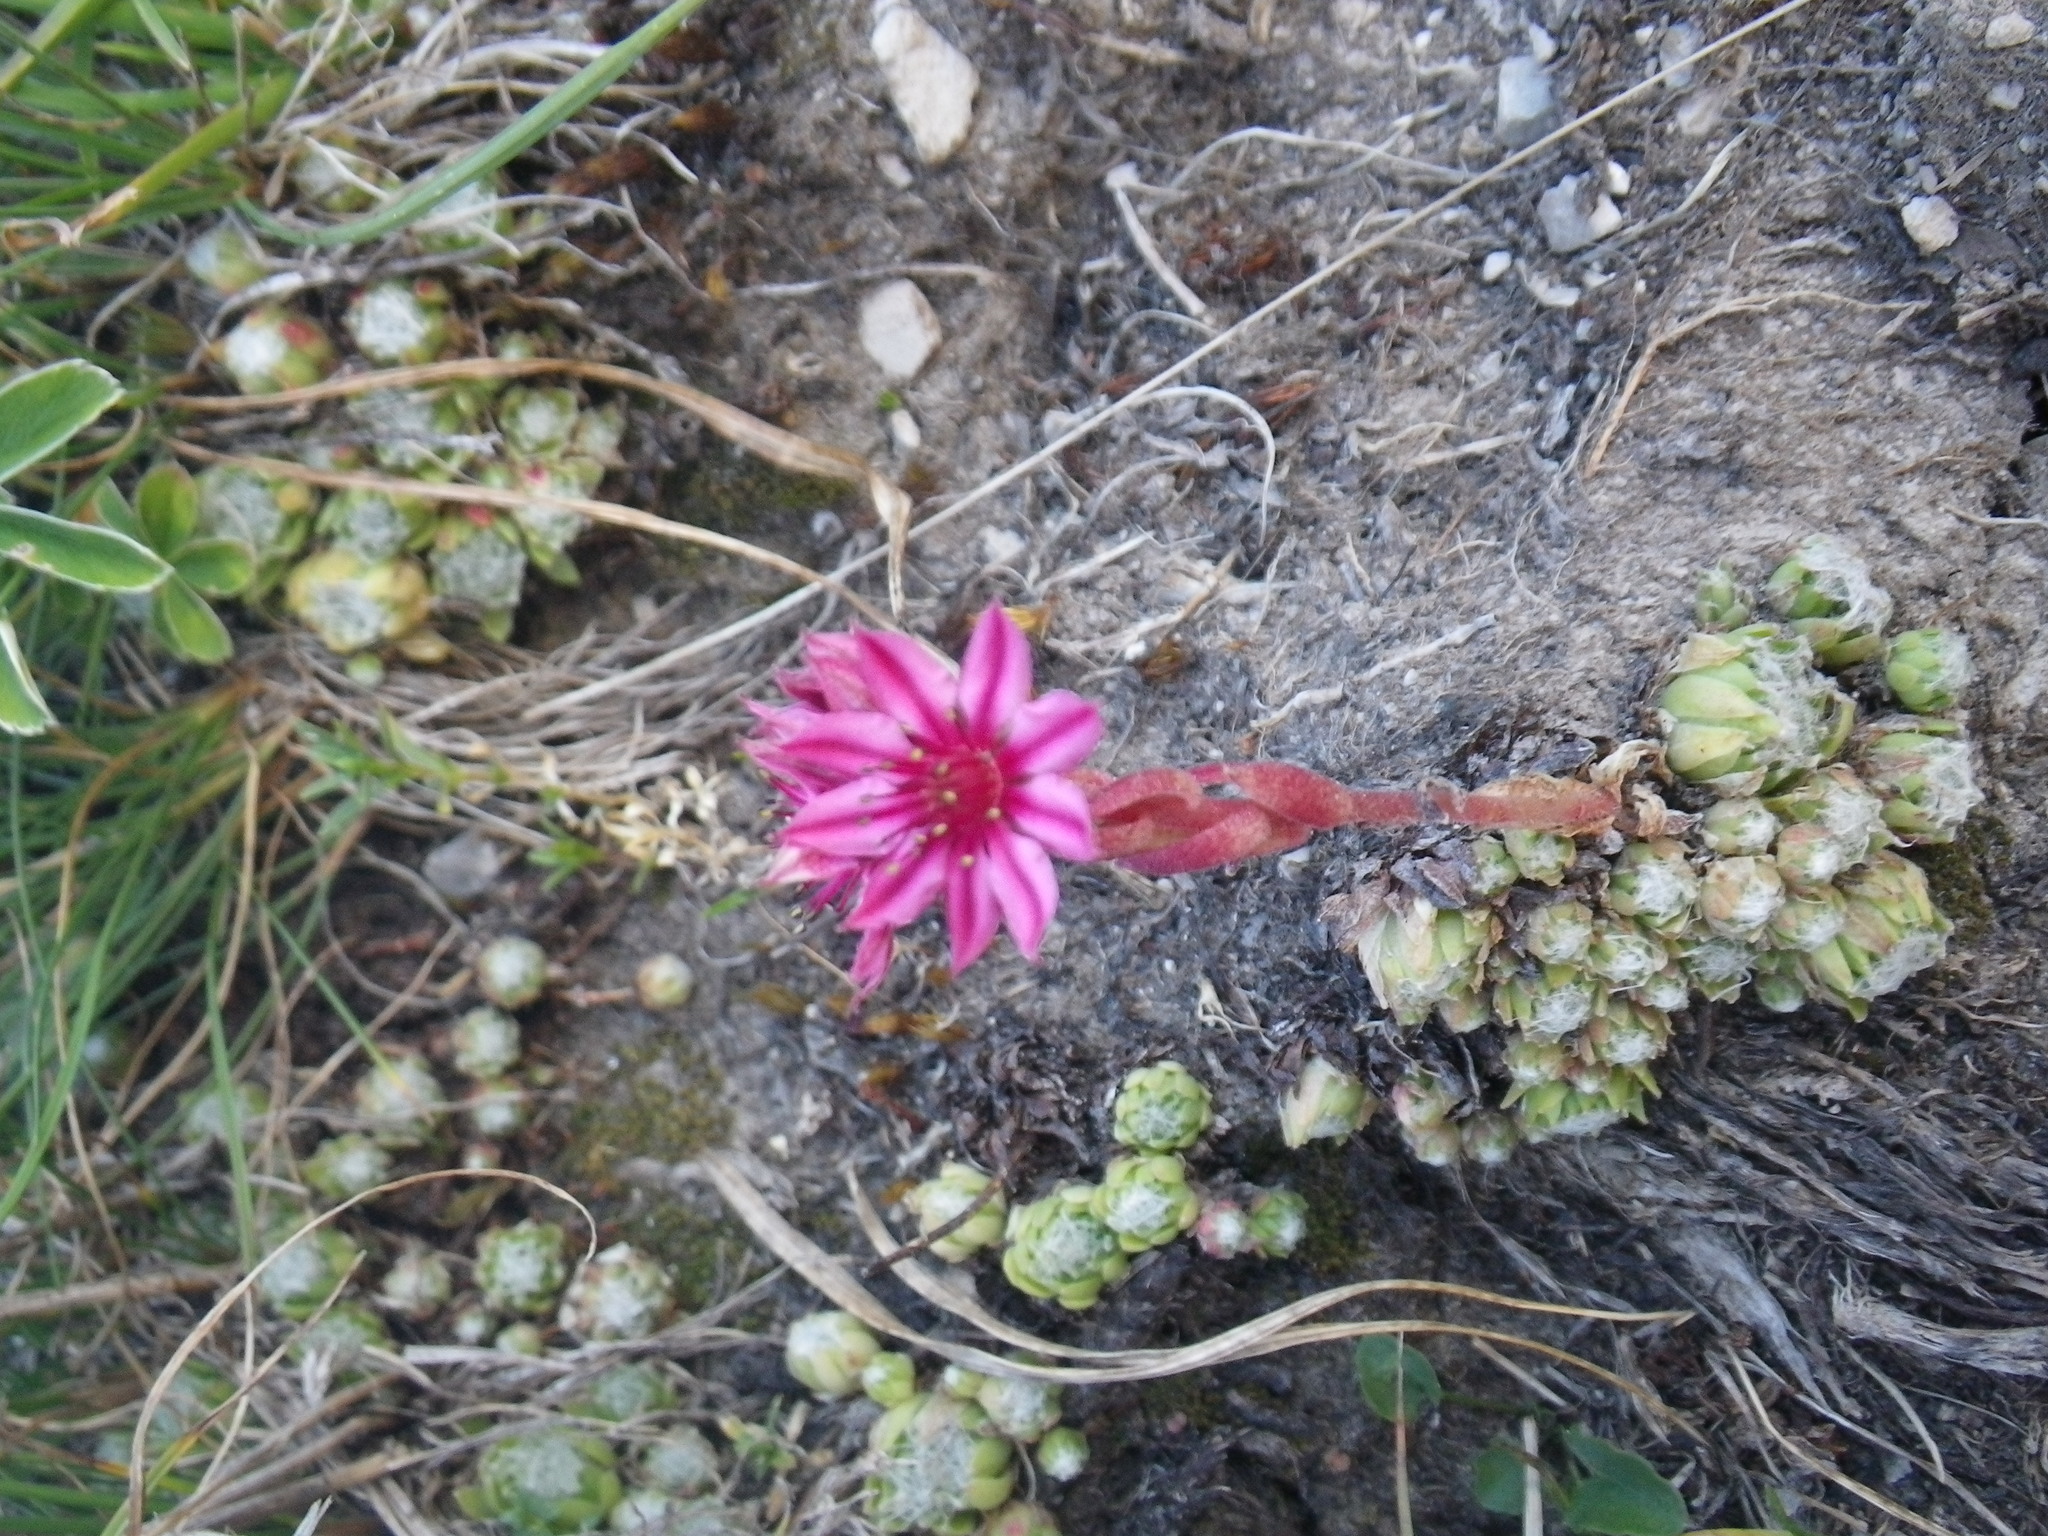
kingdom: Plantae
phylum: Tracheophyta
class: Magnoliopsida
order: Saxifragales
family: Crassulaceae
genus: Sempervivum
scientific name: Sempervivum arachnoideum
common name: Cobweb house-leek
